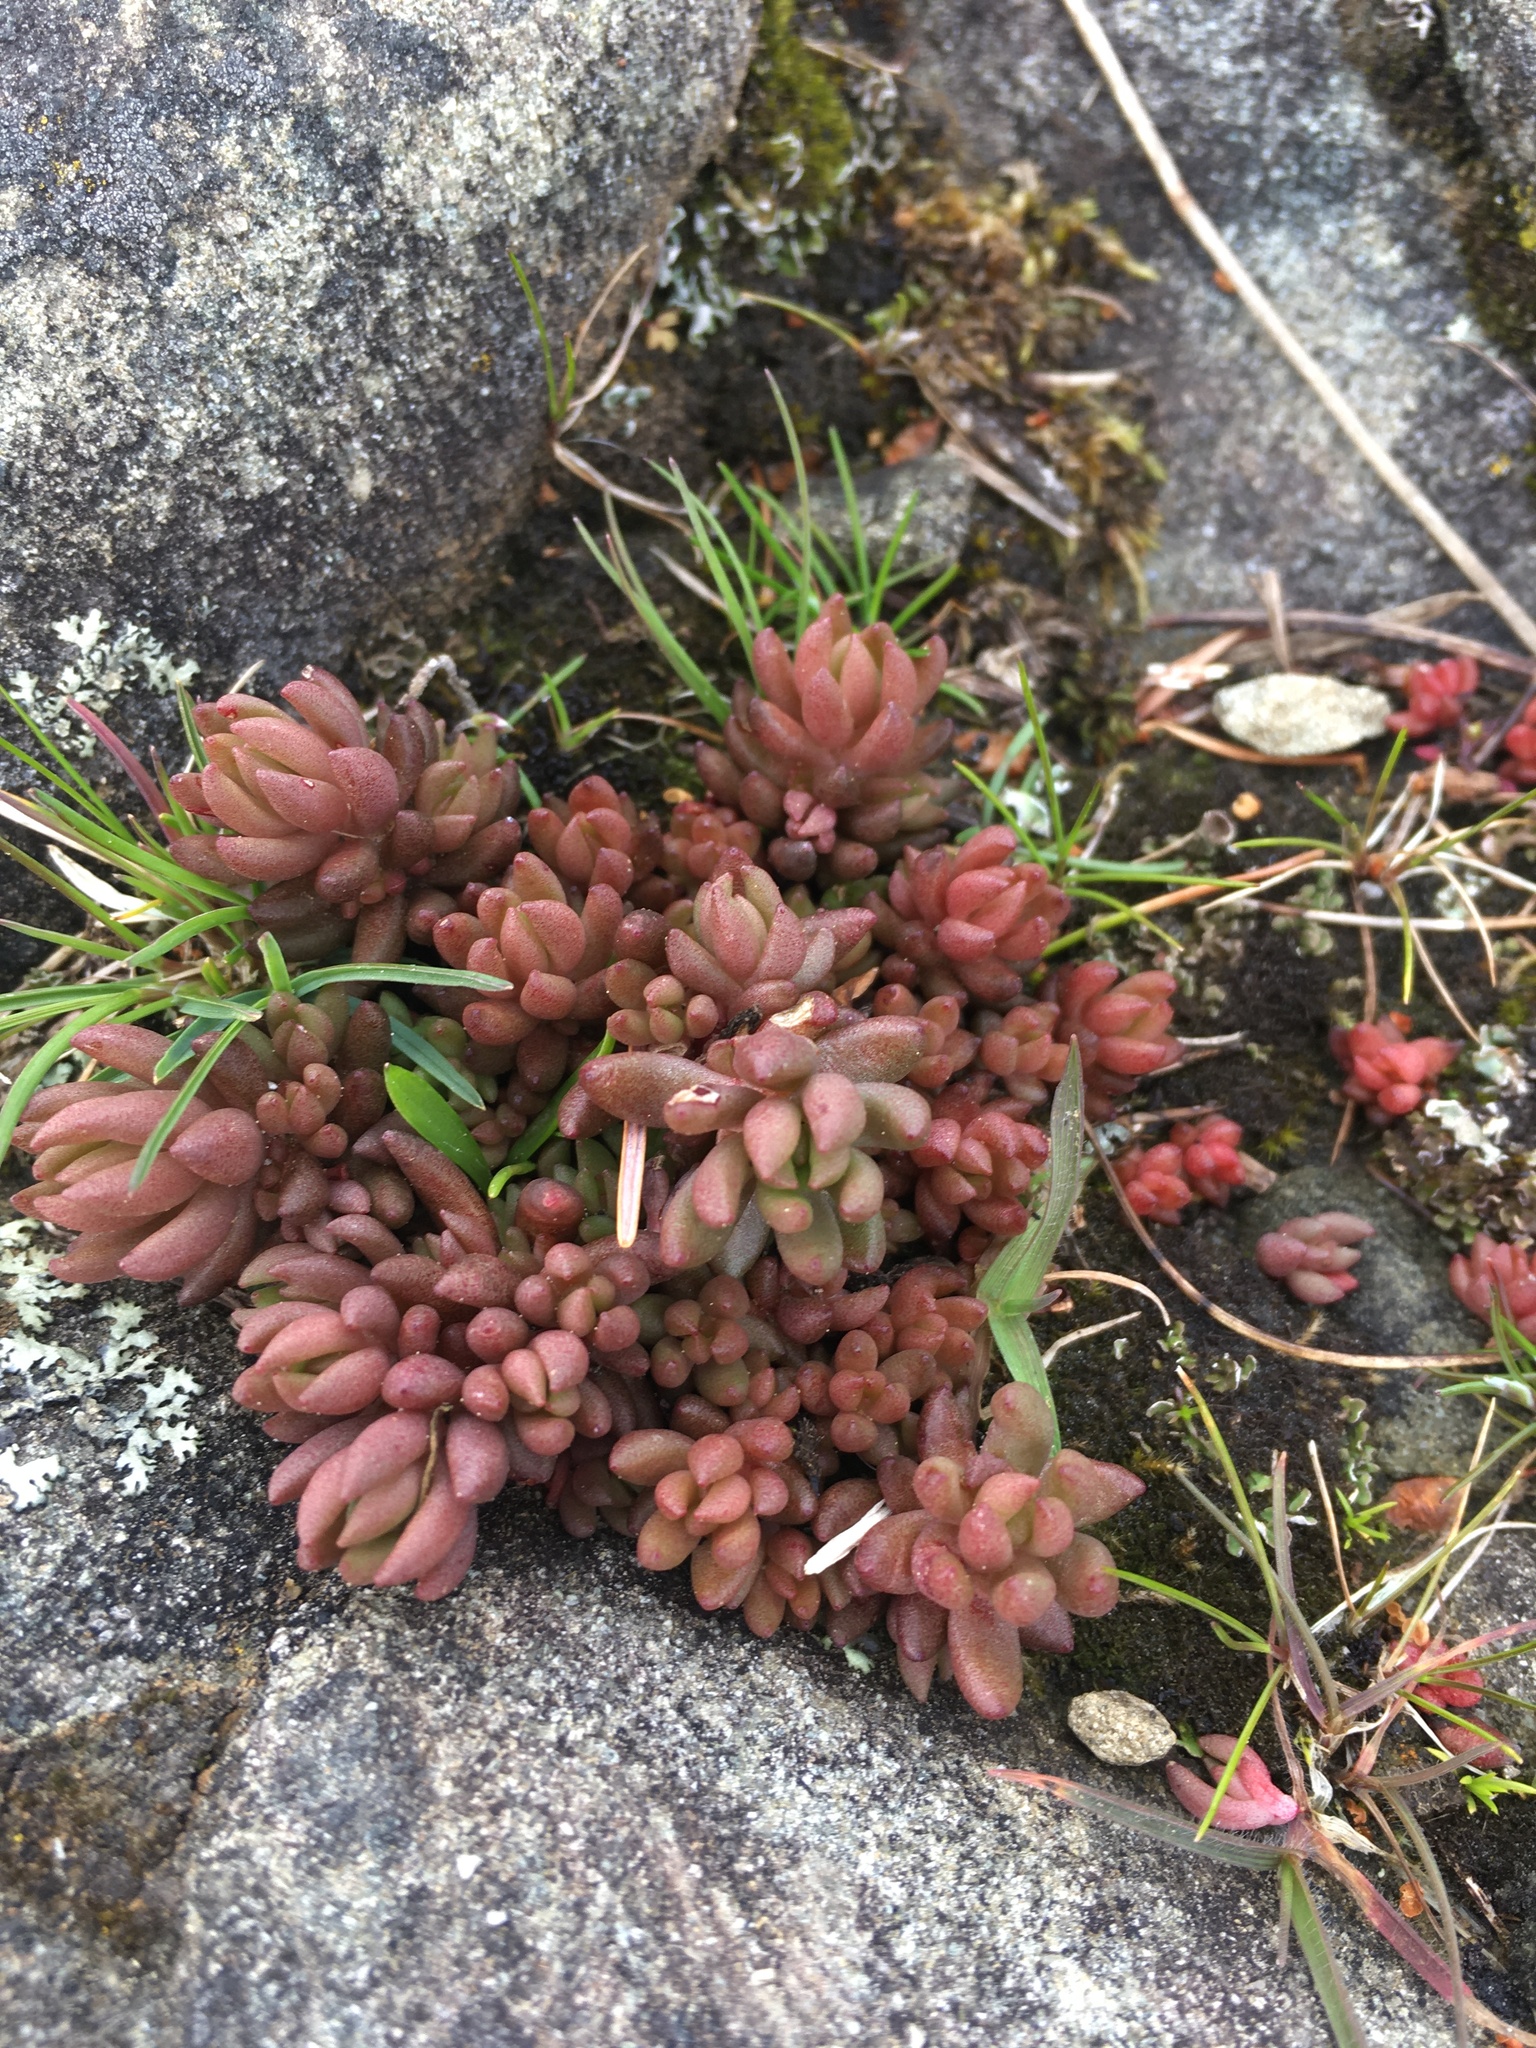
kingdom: Plantae
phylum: Tracheophyta
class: Magnoliopsida
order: Saxifragales
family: Crassulaceae
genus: Sedum
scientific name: Sedum lanceolatum
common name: Common stonecrop
